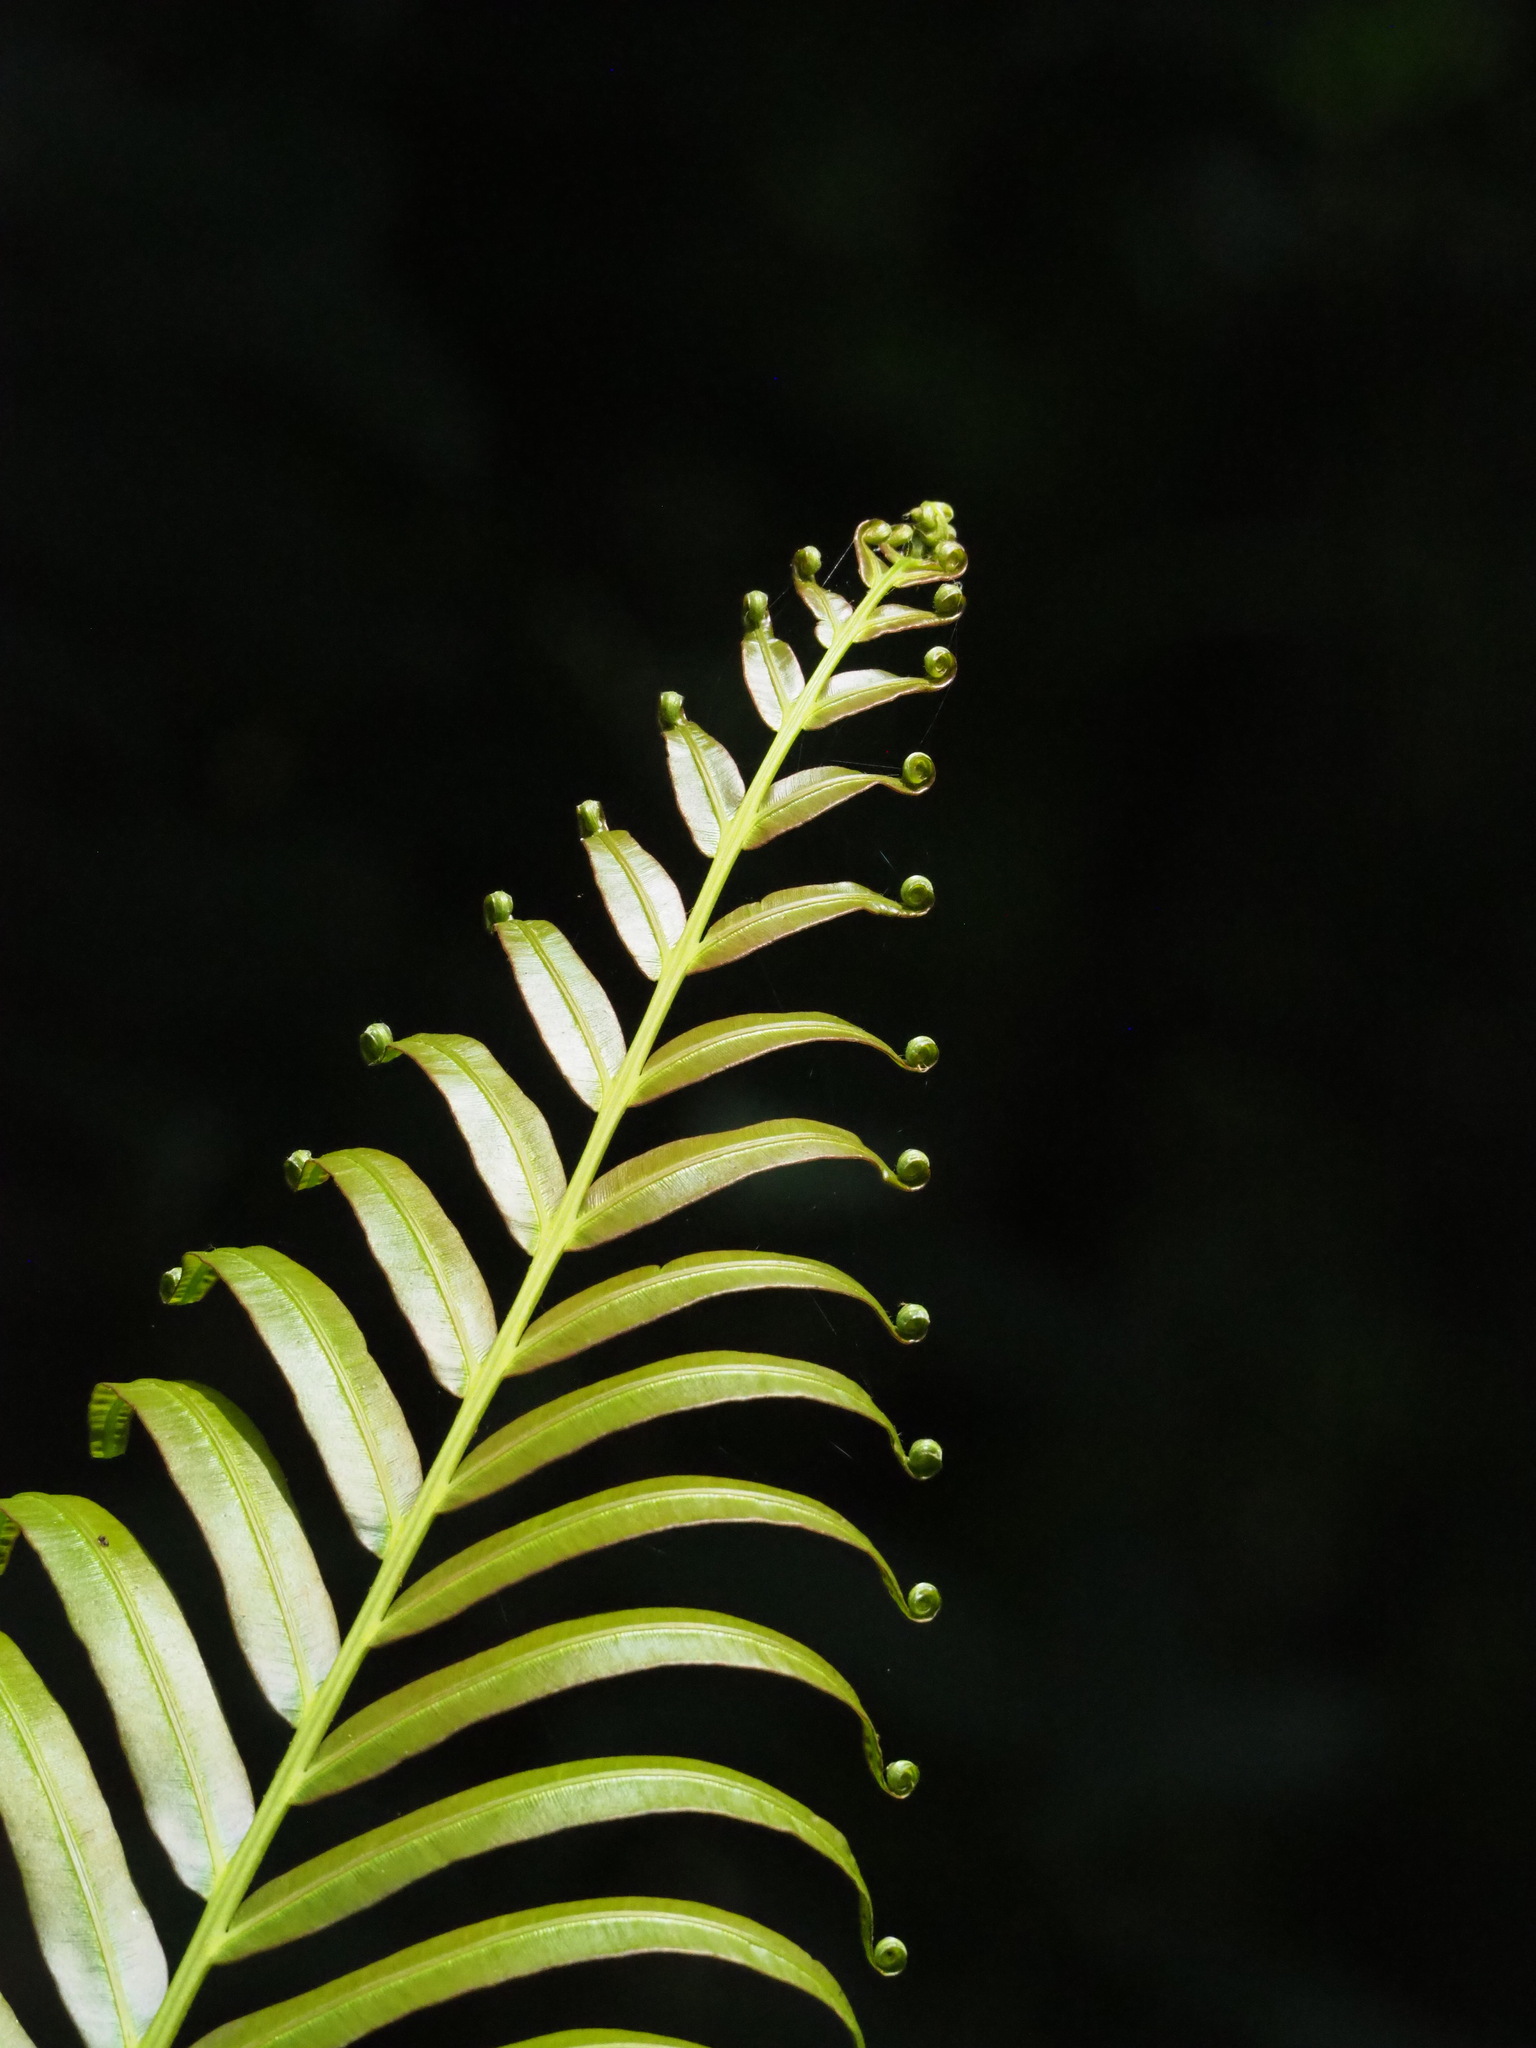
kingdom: Plantae
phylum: Tracheophyta
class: Polypodiopsida
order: Polypodiales
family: Blechnaceae
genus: Blechnopsis
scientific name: Blechnopsis orientalis
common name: Oriental blechnum
